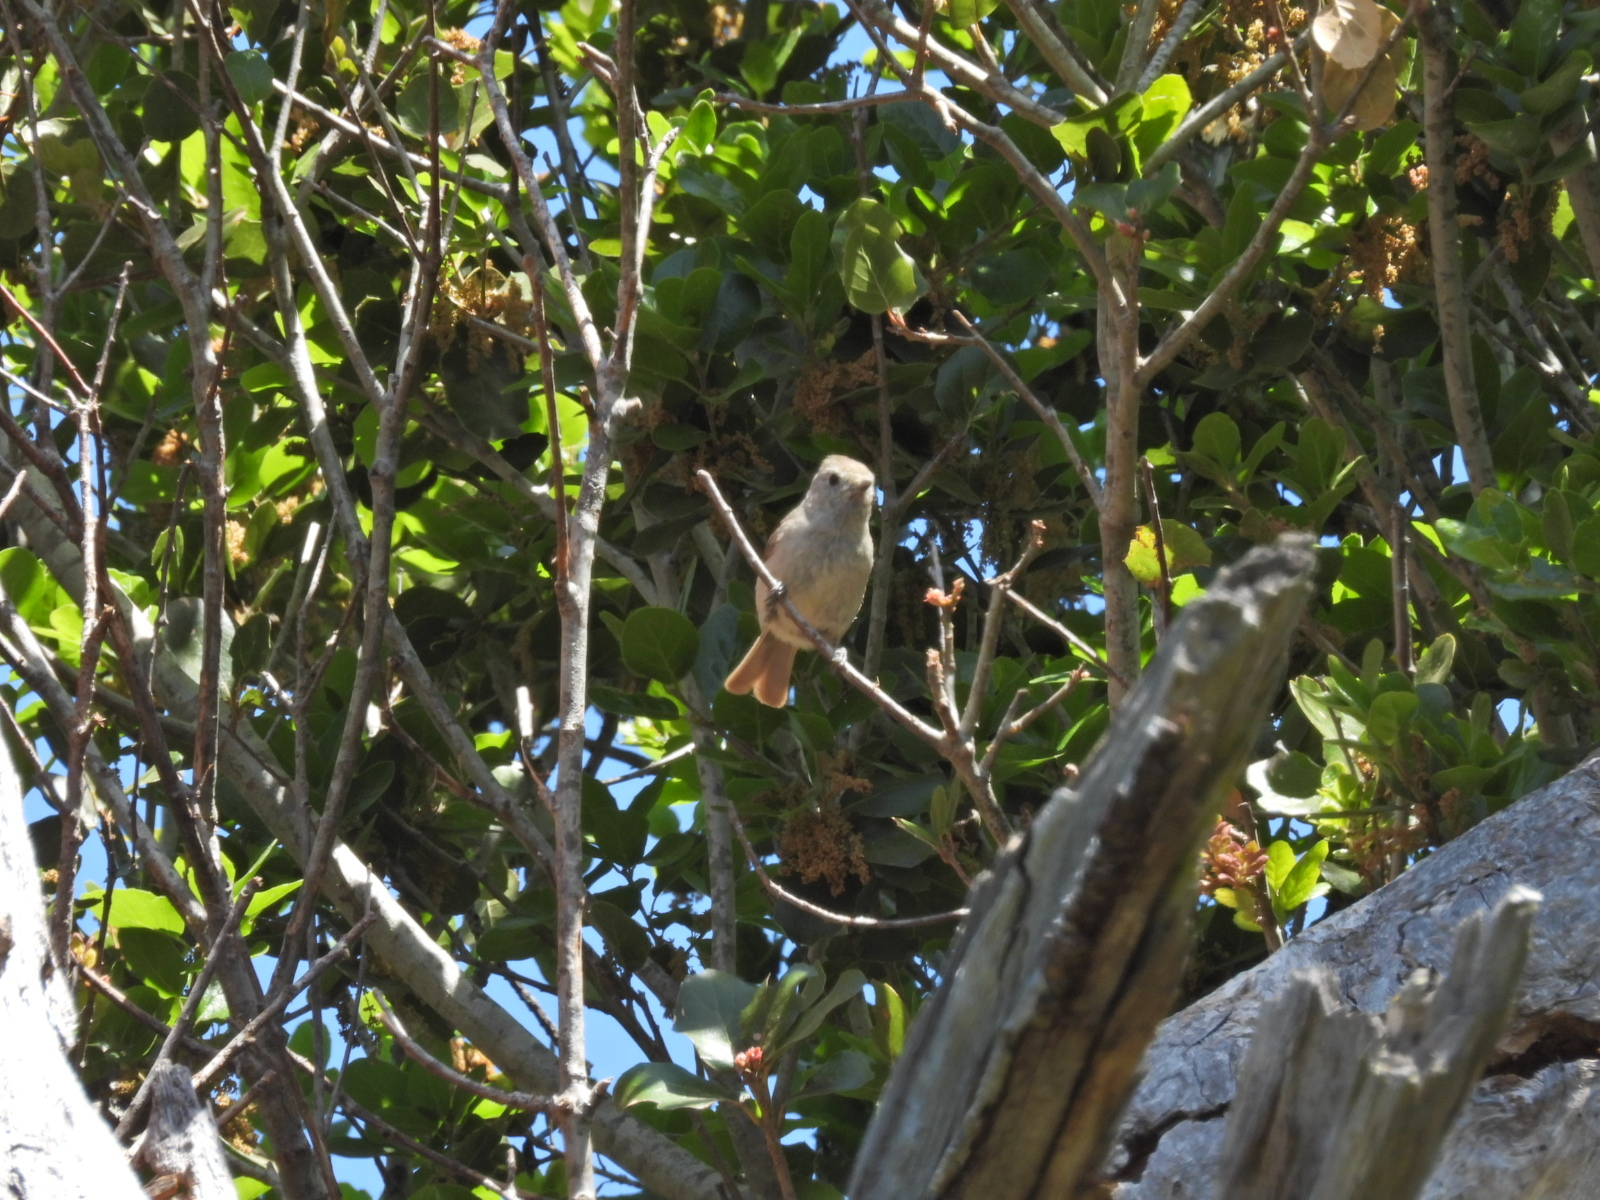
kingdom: Animalia
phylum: Chordata
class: Aves
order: Passeriformes
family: Paridae
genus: Baeolophus
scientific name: Baeolophus inornatus
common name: Oak titmouse
